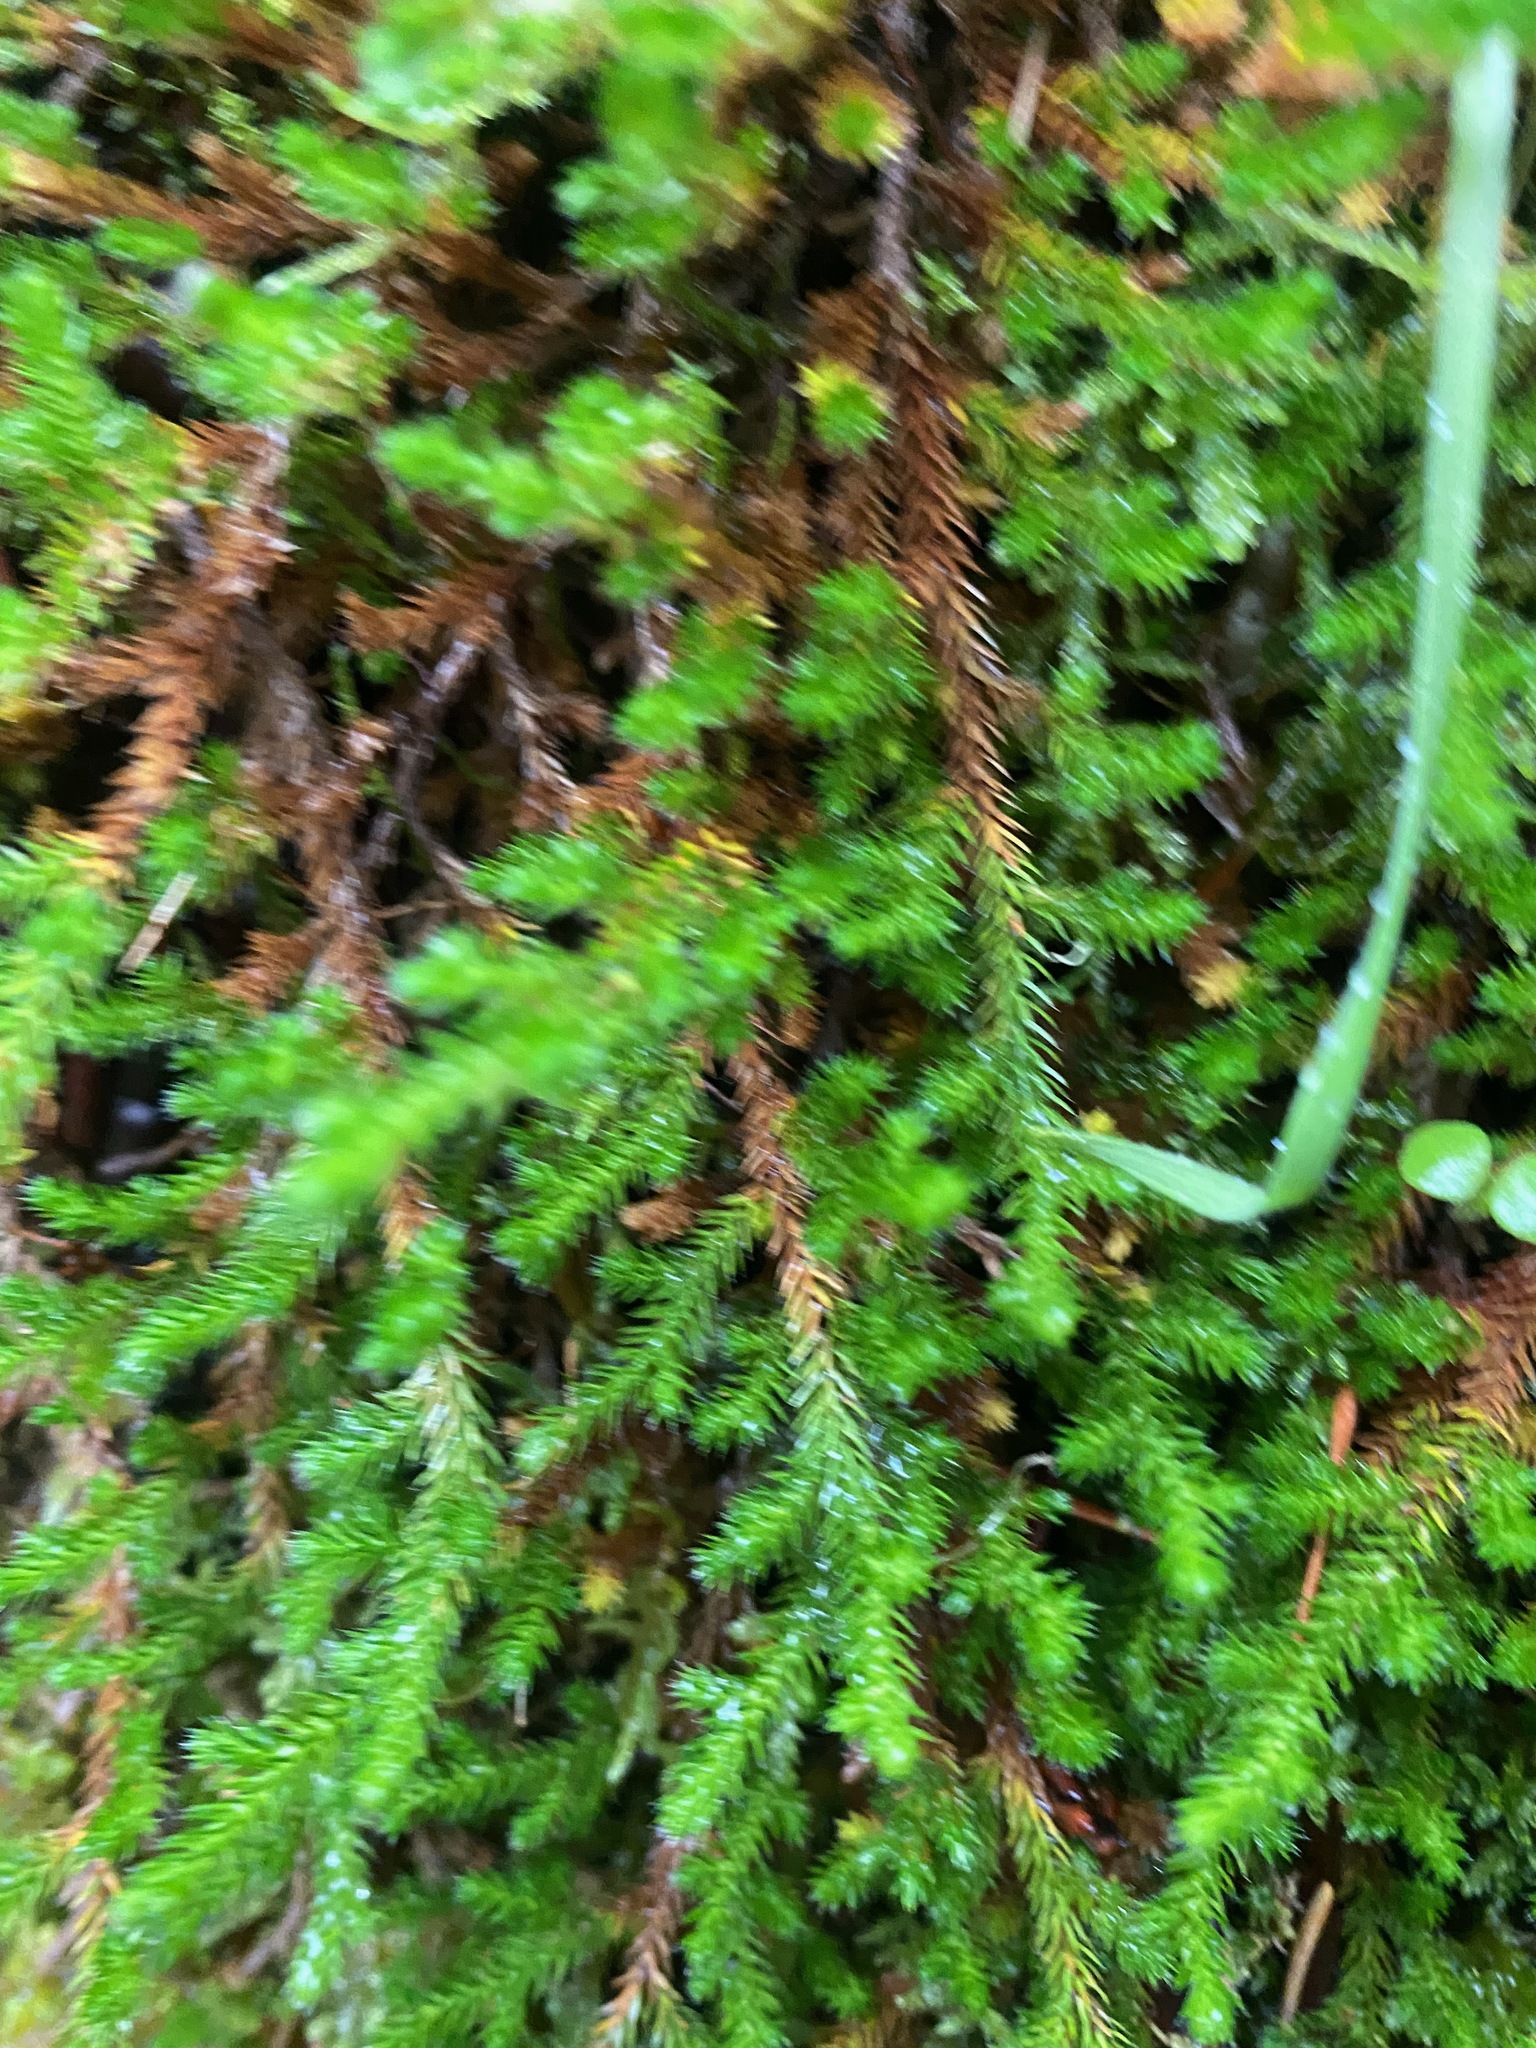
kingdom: Plantae
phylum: Tracheophyta
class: Lycopodiopsida
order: Selaginellales
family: Selaginellaceae
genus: Selaginella
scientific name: Selaginella wallacei
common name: Wallace's selaginella
